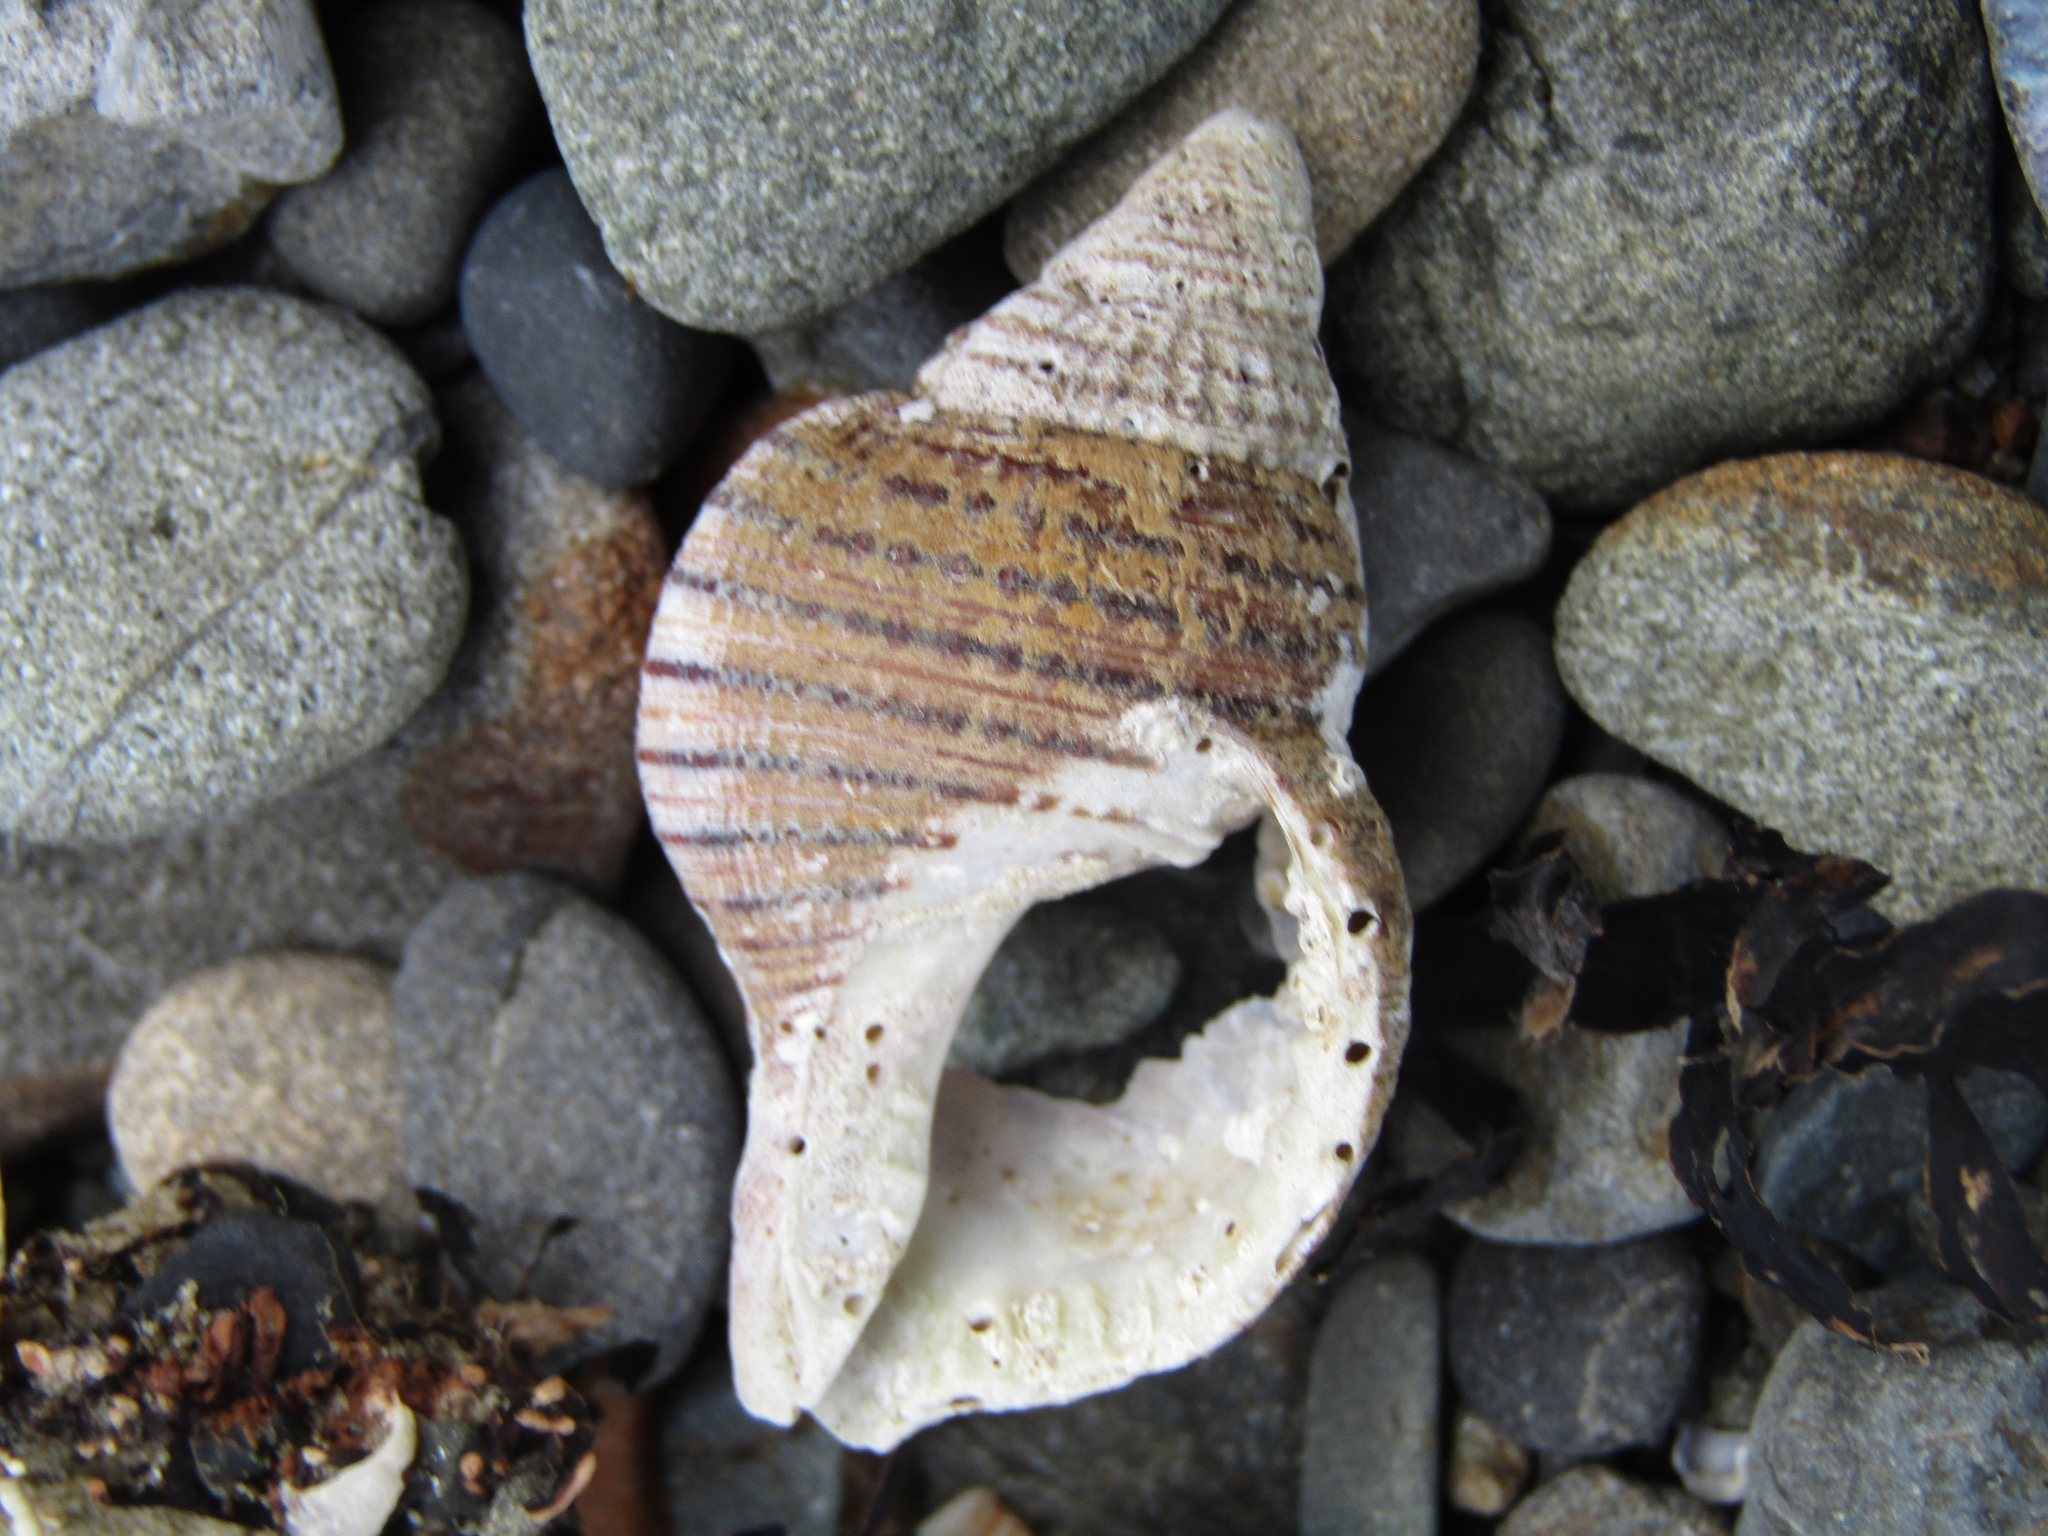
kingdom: Animalia
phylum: Mollusca
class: Gastropoda
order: Littorinimorpha
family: Cymatiidae
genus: Argobuccinum
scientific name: Argobuccinum pustulosum
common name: Pustular triton
